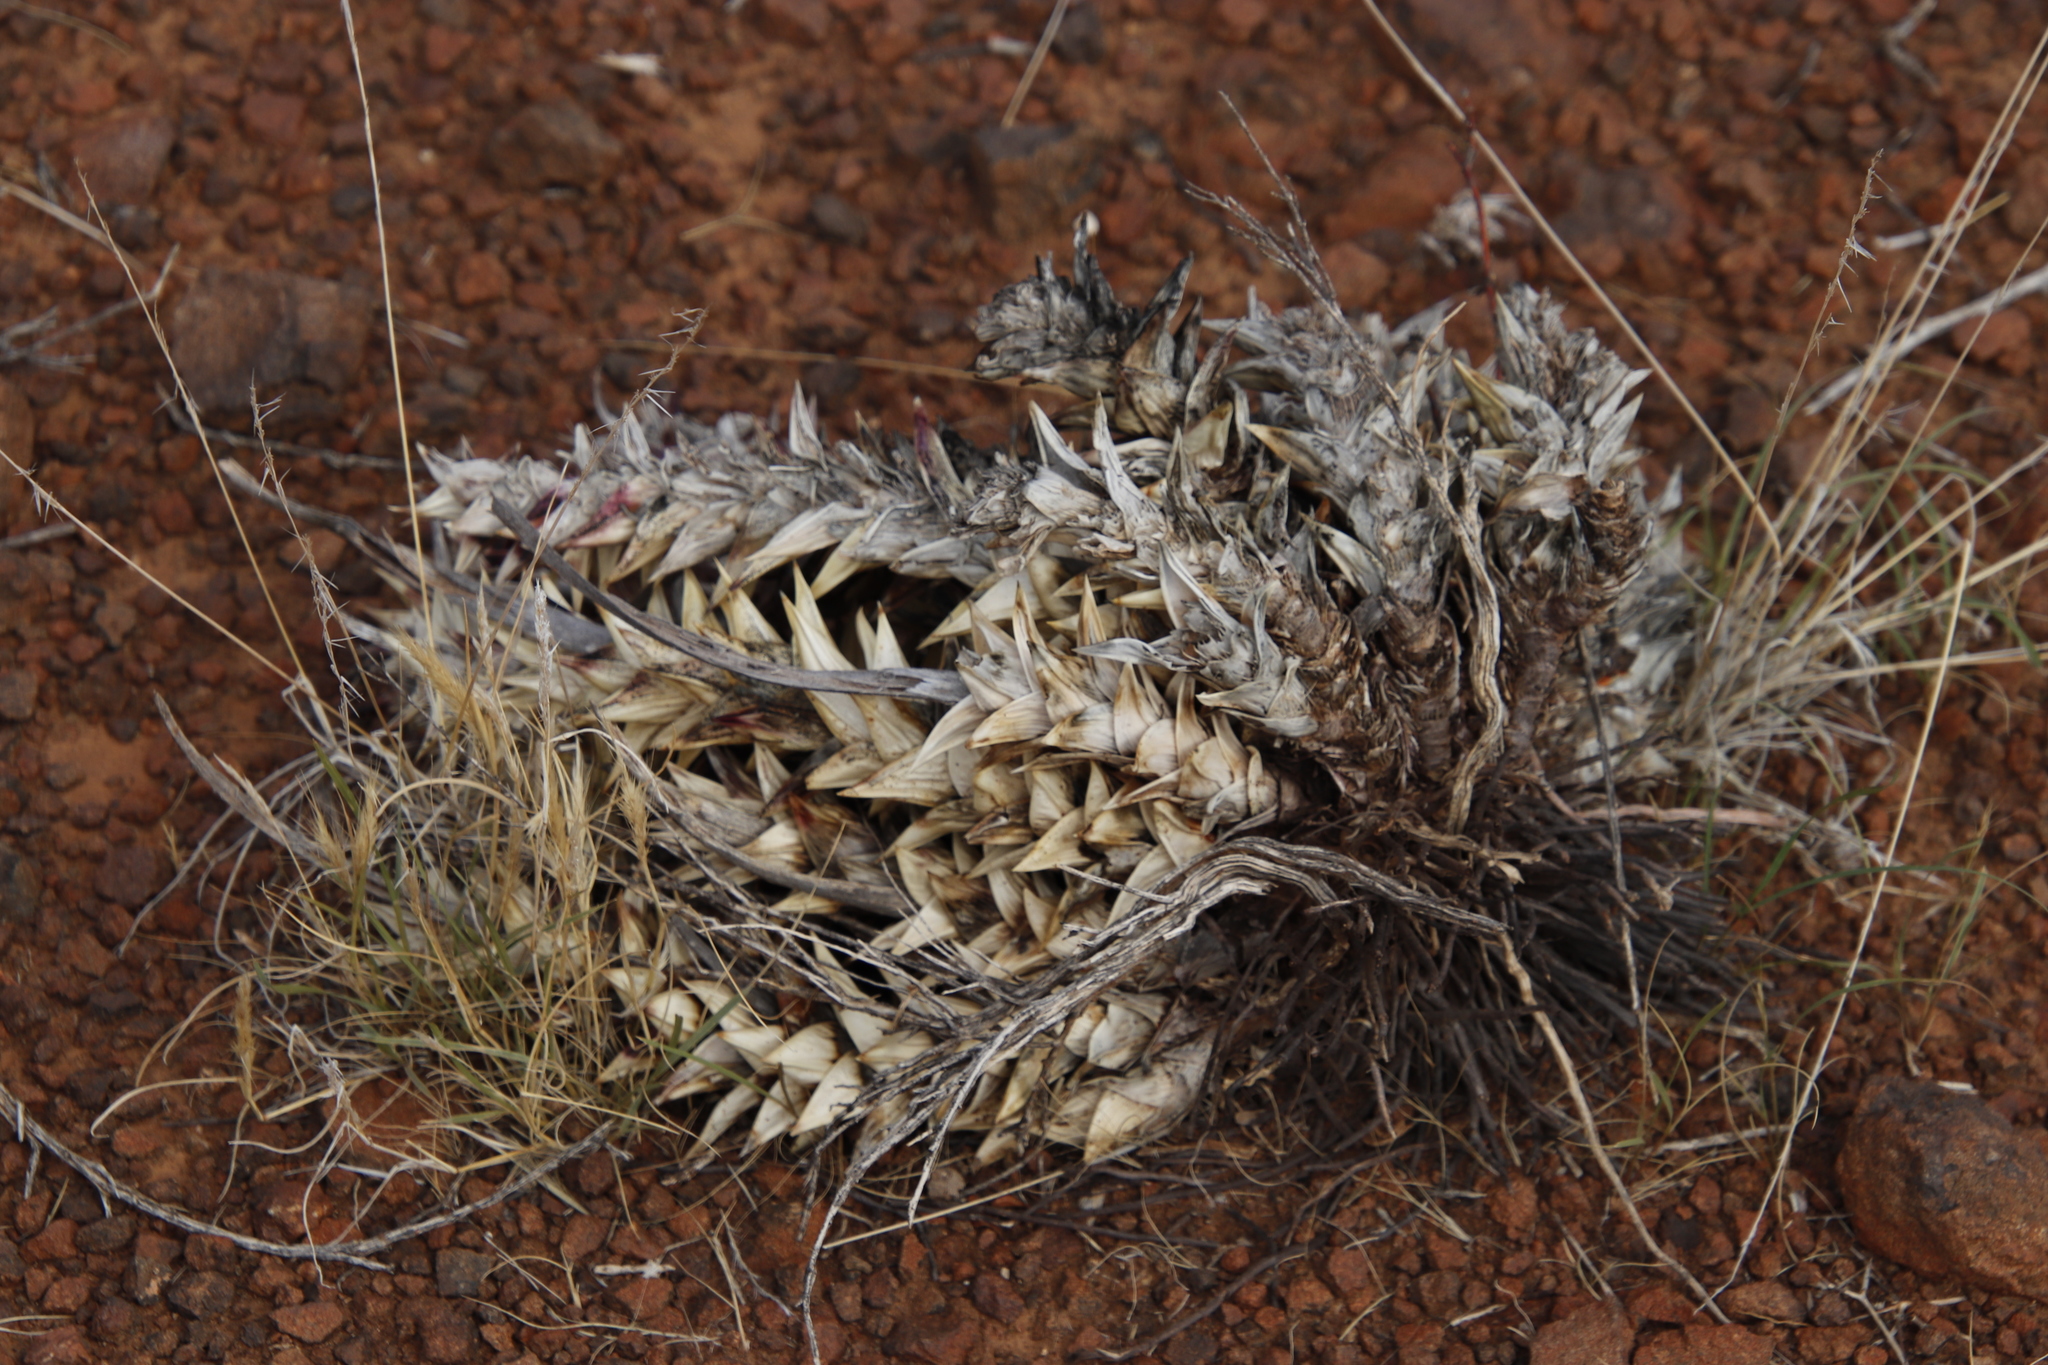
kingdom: Plantae
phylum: Tracheophyta
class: Liliopsida
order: Asparagales
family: Asphodelaceae
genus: Astroloba
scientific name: Astroloba robusta
